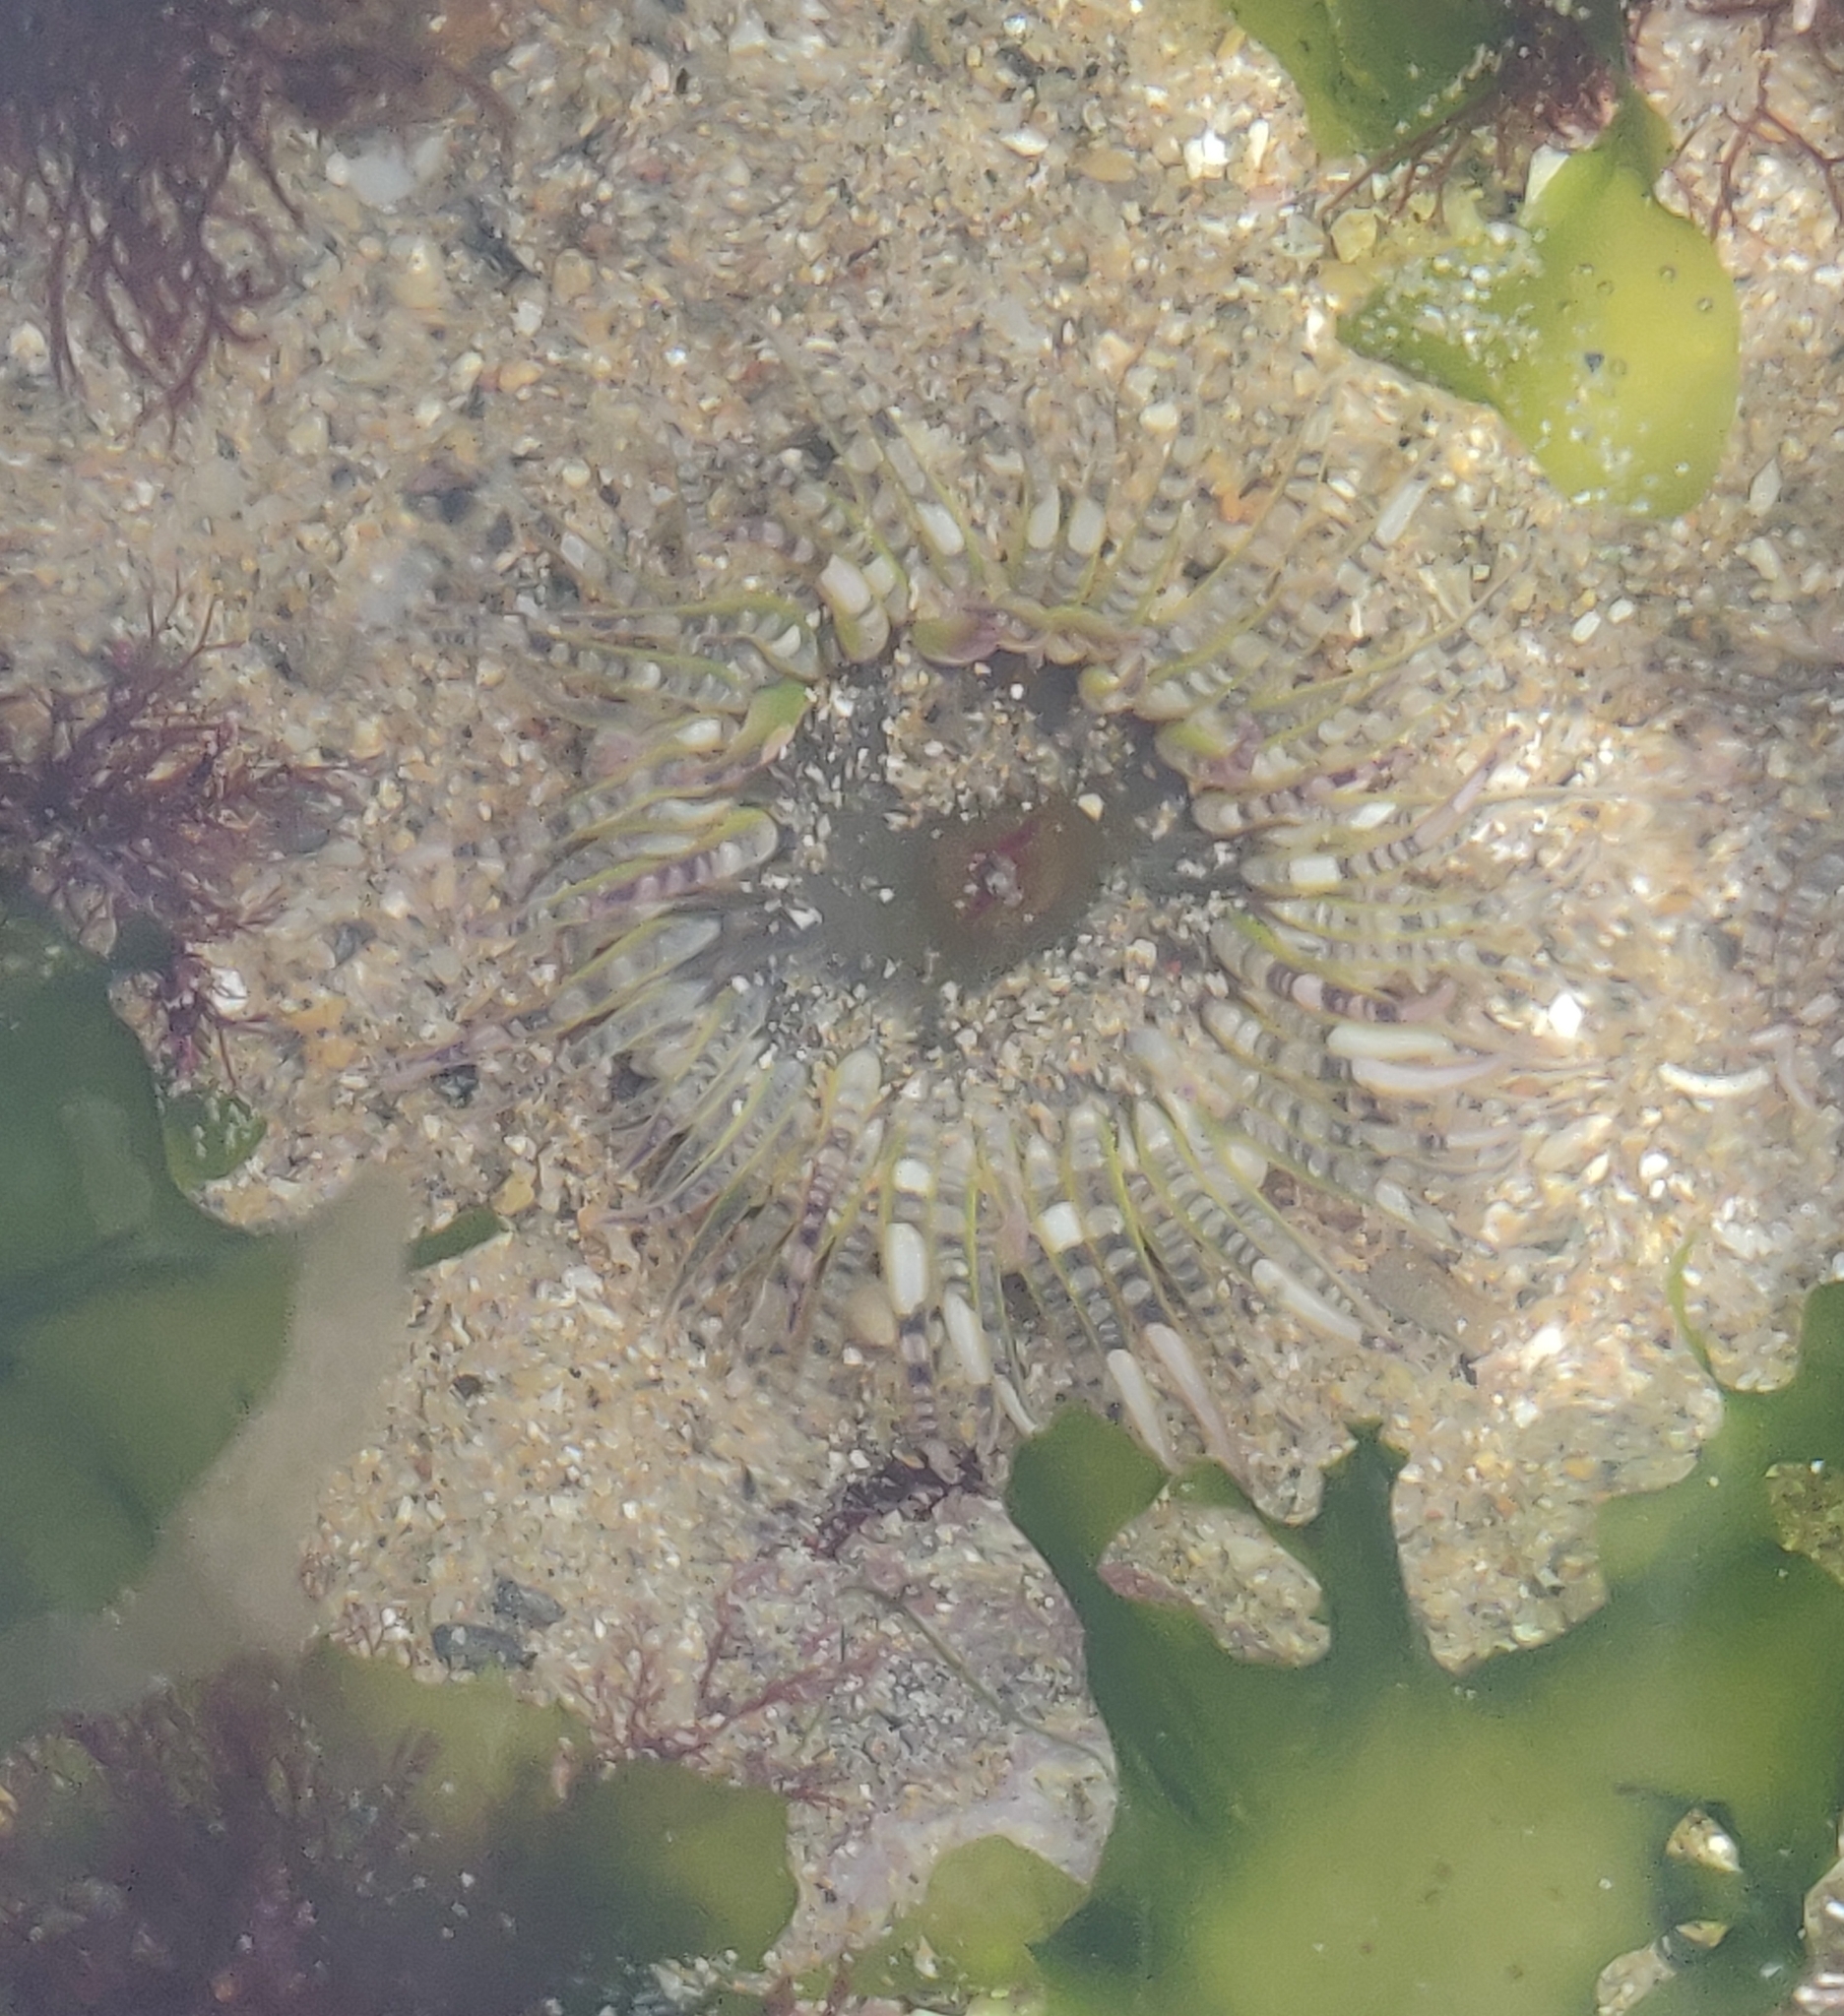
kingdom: Animalia
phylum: Cnidaria
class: Anthozoa
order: Actiniaria
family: Actiniidae
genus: Bunodactis
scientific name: Bunodactis verrucosa
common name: Gem anemone
